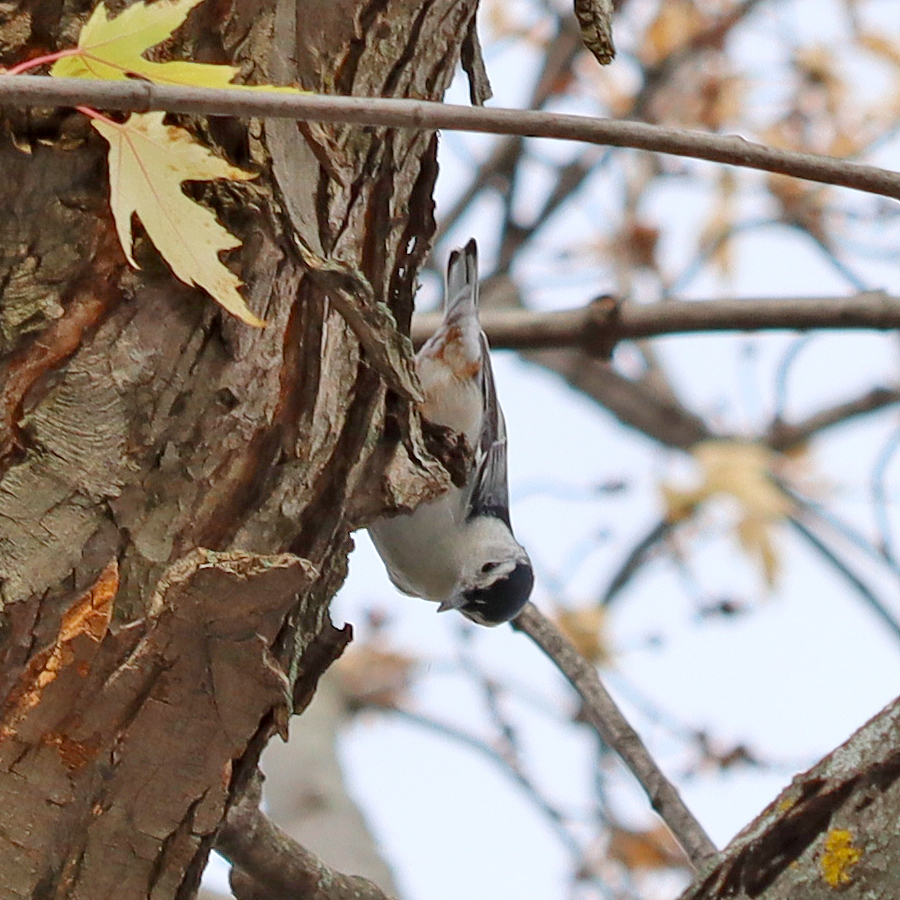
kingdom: Animalia
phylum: Chordata
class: Aves
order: Passeriformes
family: Sittidae
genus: Sitta
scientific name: Sitta carolinensis
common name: White-breasted nuthatch
